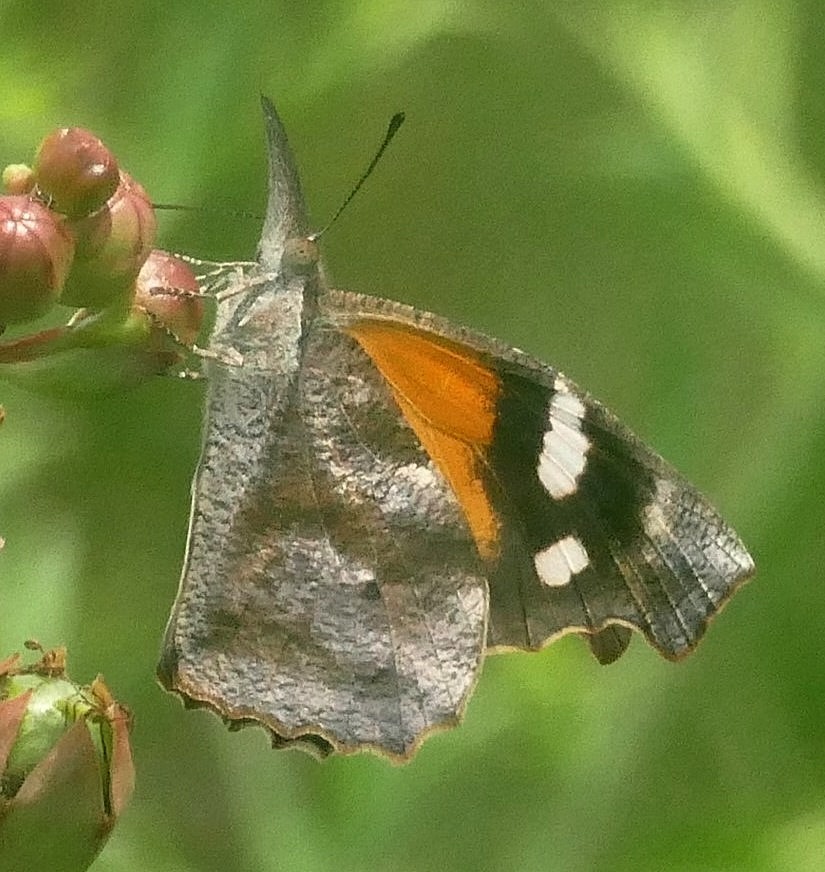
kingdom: Animalia
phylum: Arthropoda
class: Insecta
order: Lepidoptera
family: Nymphalidae
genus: Libytheana
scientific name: Libytheana carinenta
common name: American snout
